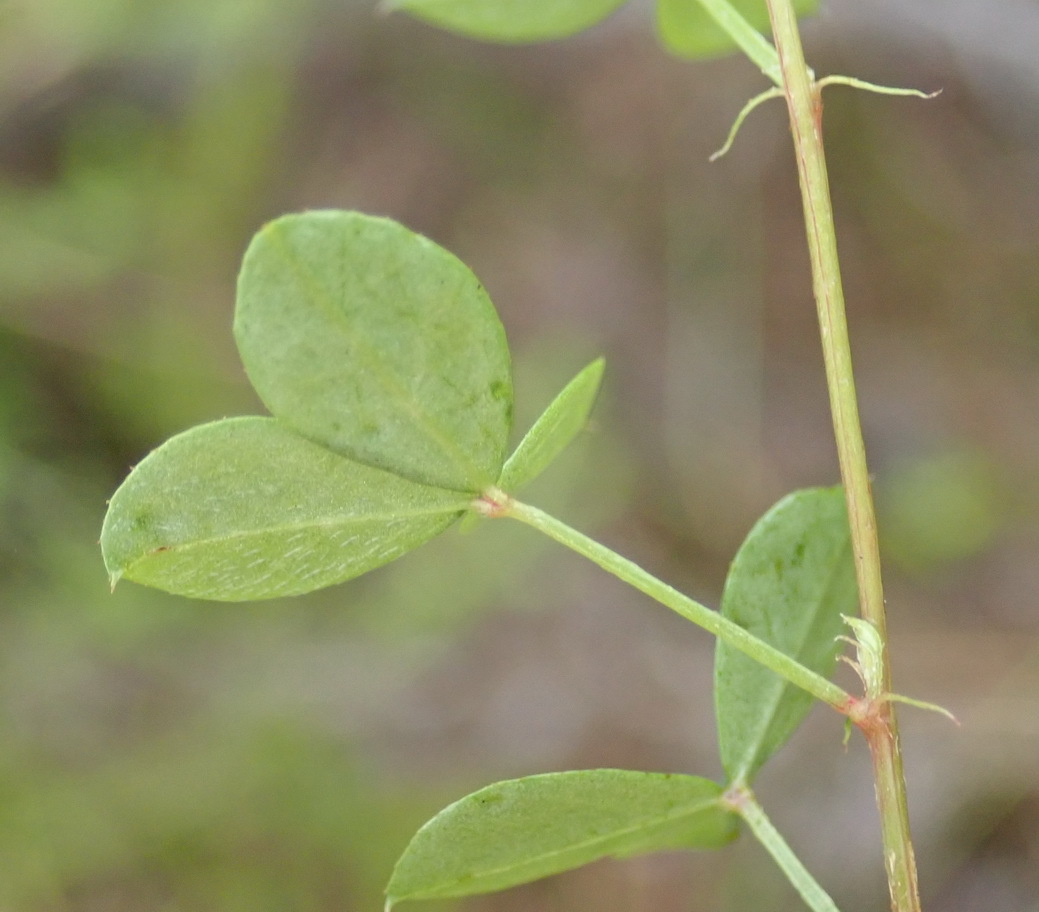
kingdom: Plantae
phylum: Tracheophyta
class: Magnoliopsida
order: Fabales
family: Fabaceae
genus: Indigofera
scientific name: Indigofera erecta
